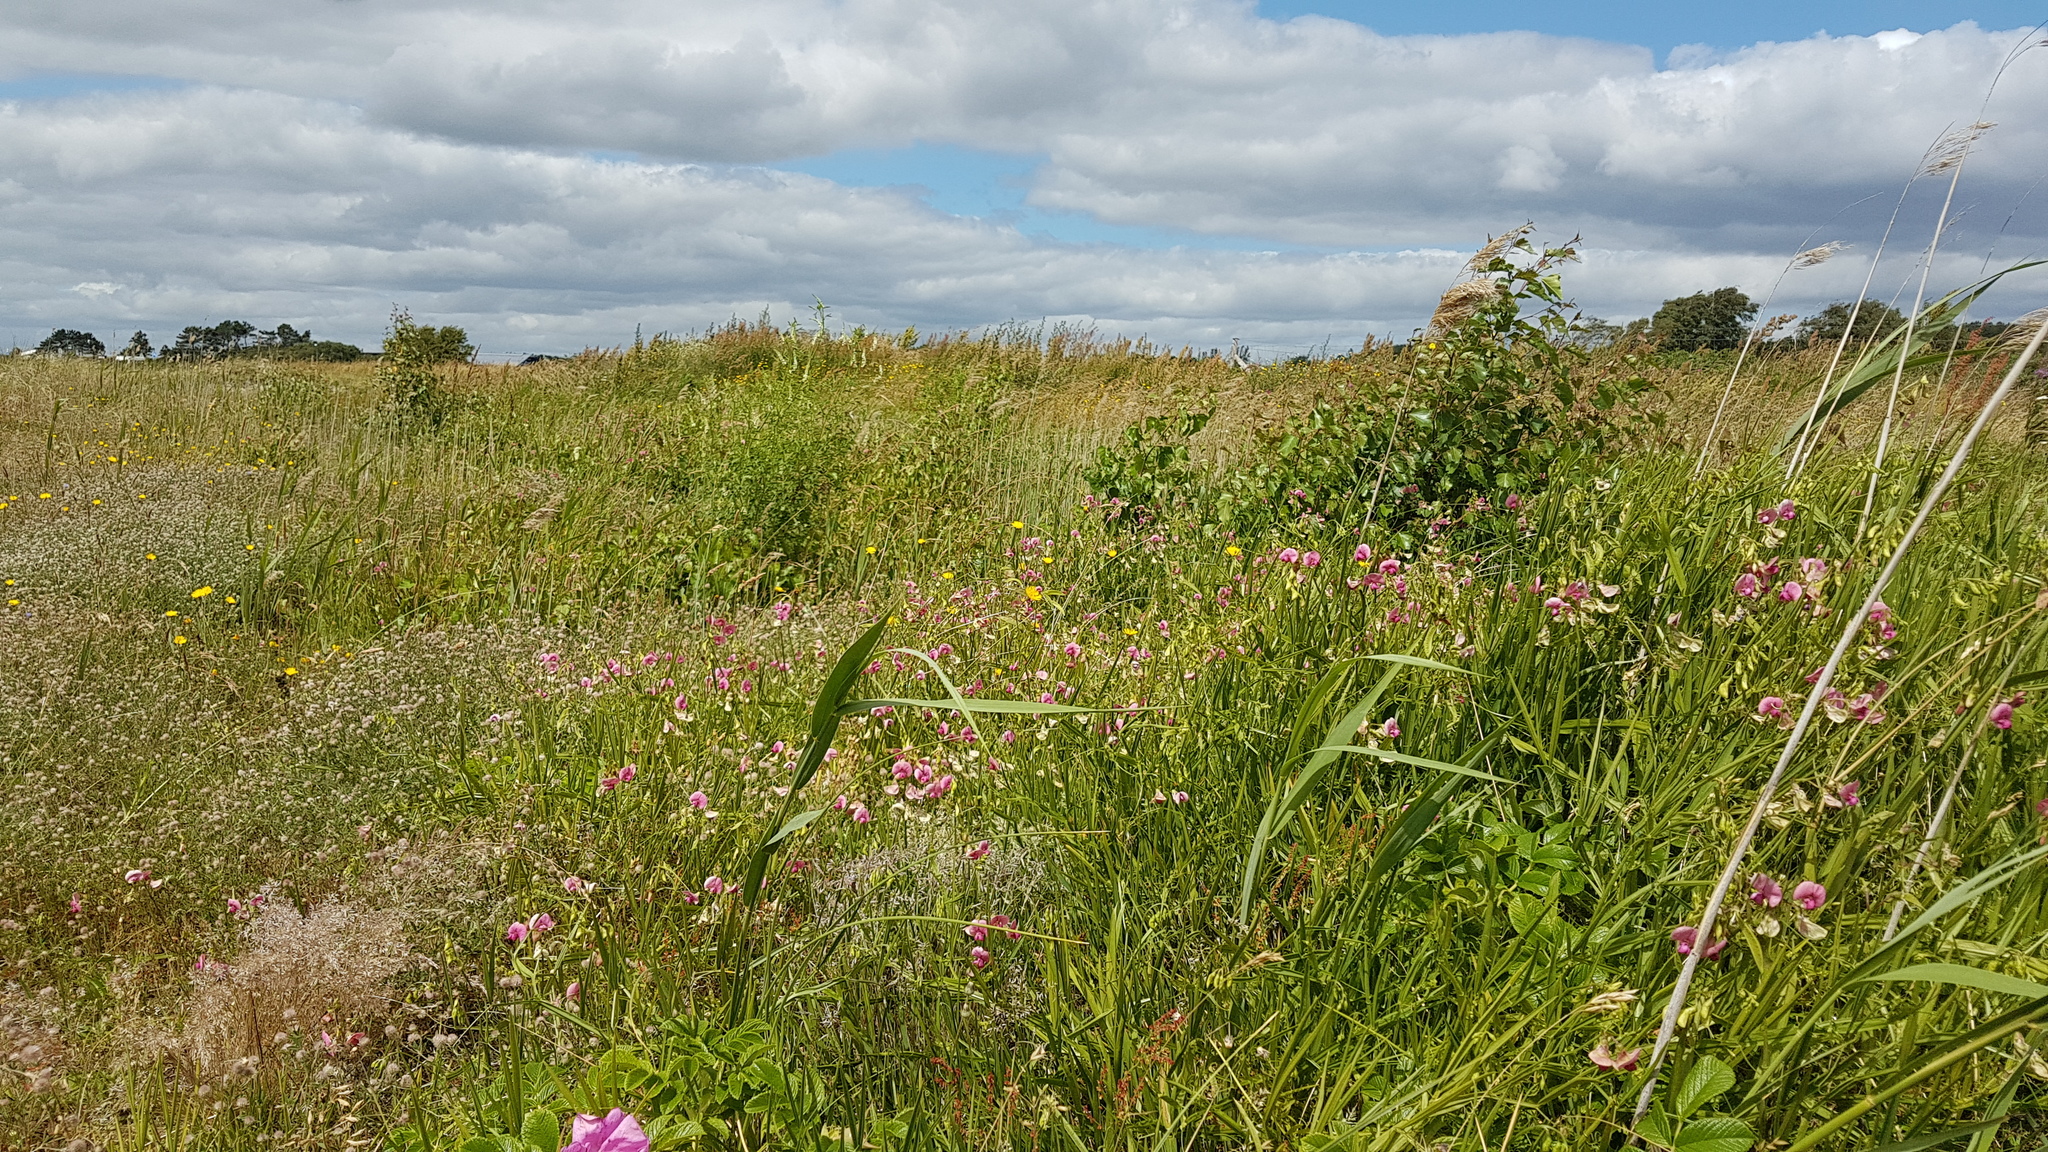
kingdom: Plantae
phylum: Tracheophyta
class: Magnoliopsida
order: Fabales
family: Fabaceae
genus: Lathyrus
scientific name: Lathyrus sylvestris
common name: Flat pea
